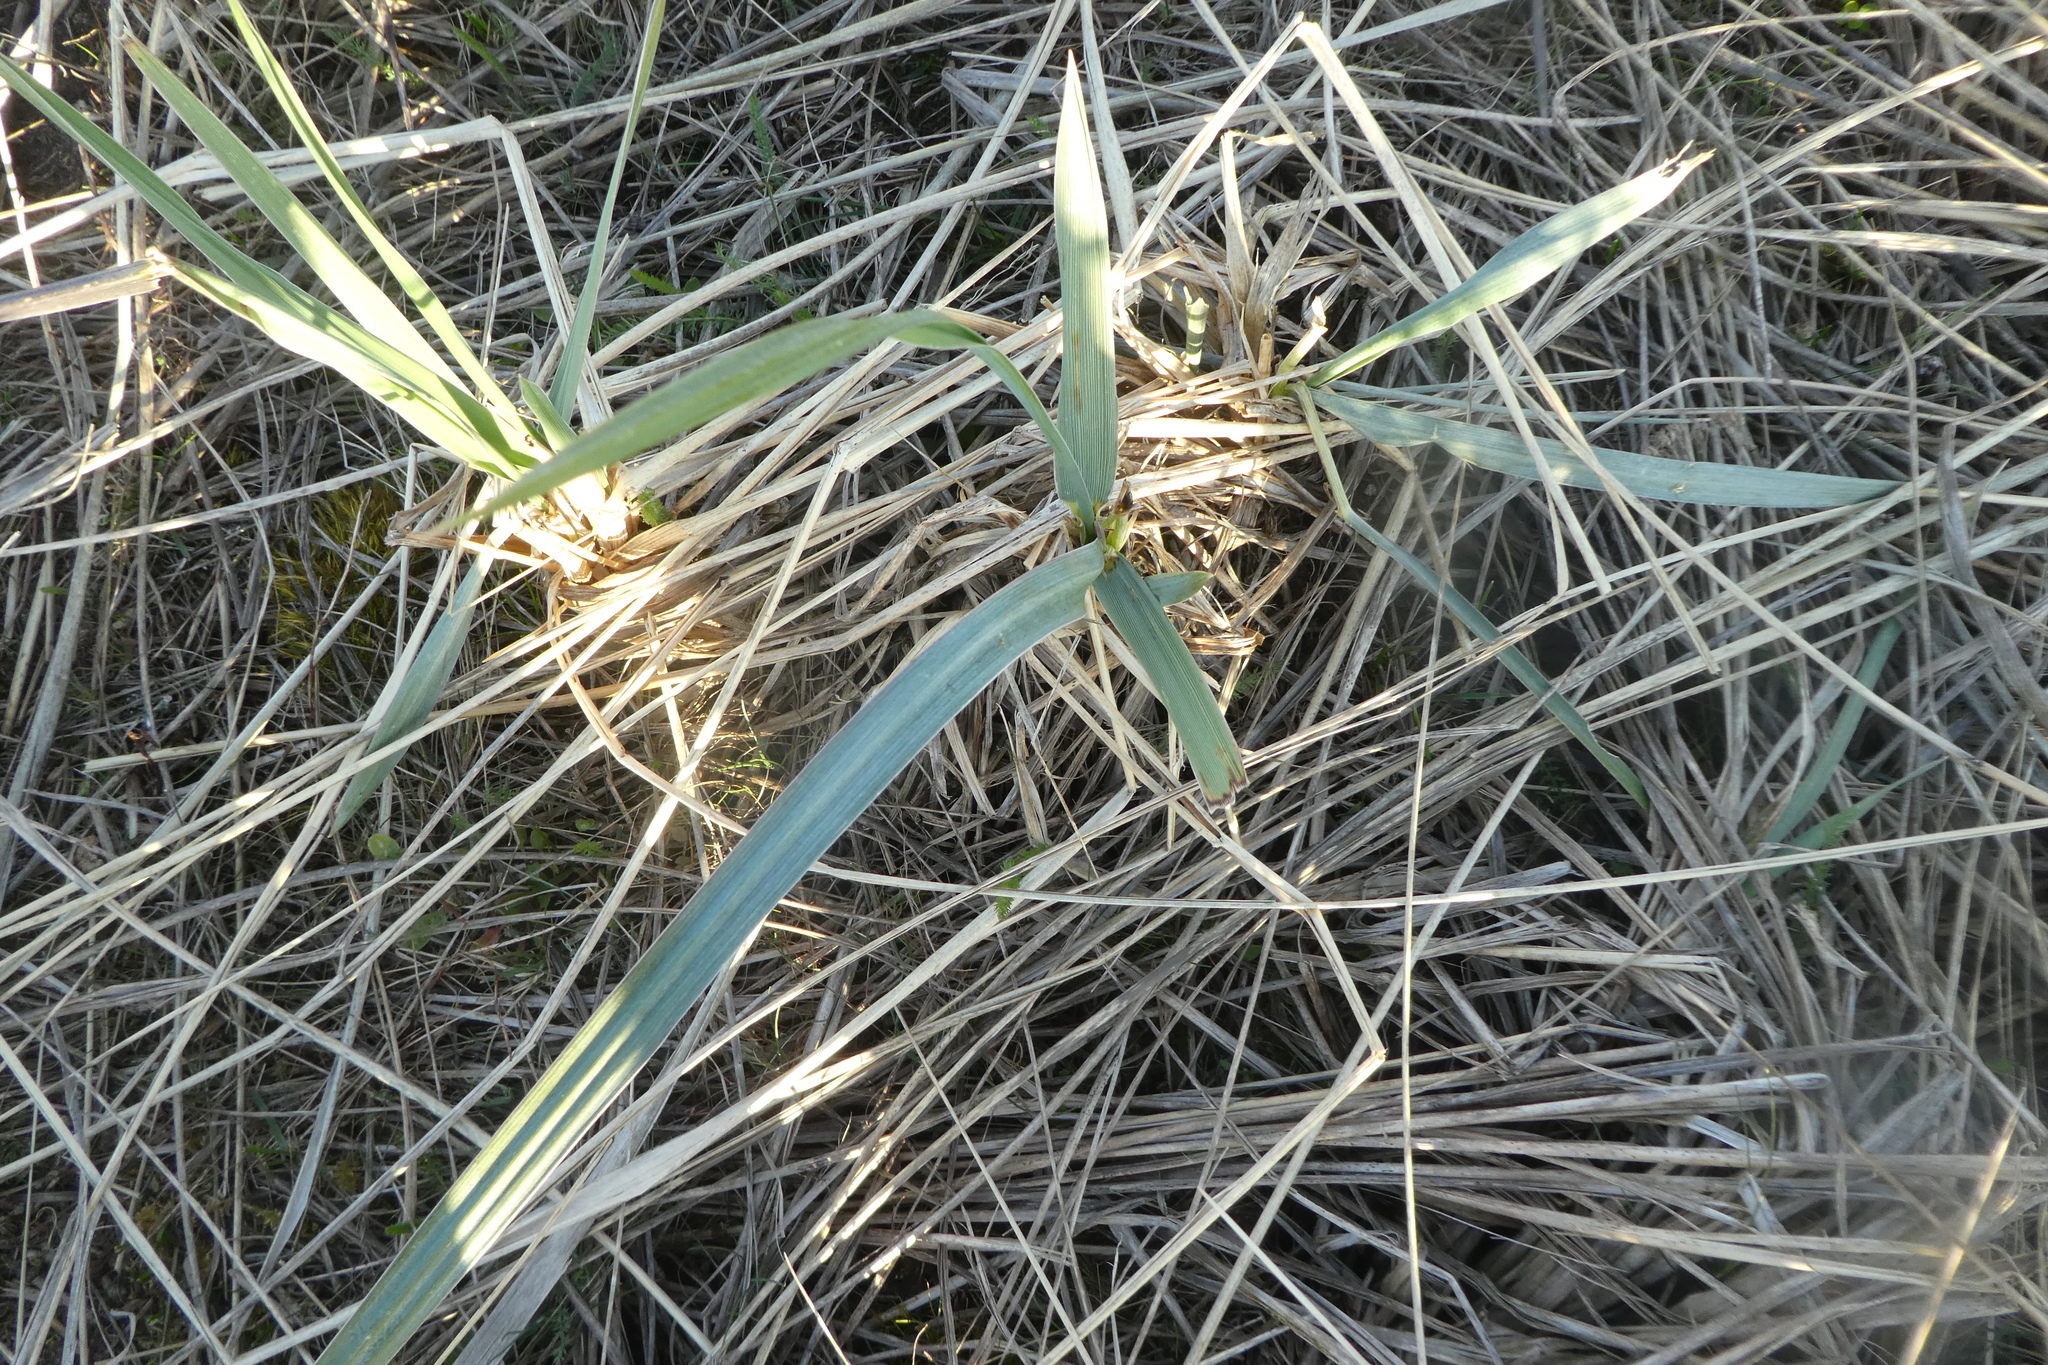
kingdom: Plantae
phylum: Tracheophyta
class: Liliopsida
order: Poales
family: Poaceae
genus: Leymus
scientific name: Leymus mollis
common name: American dune grass
